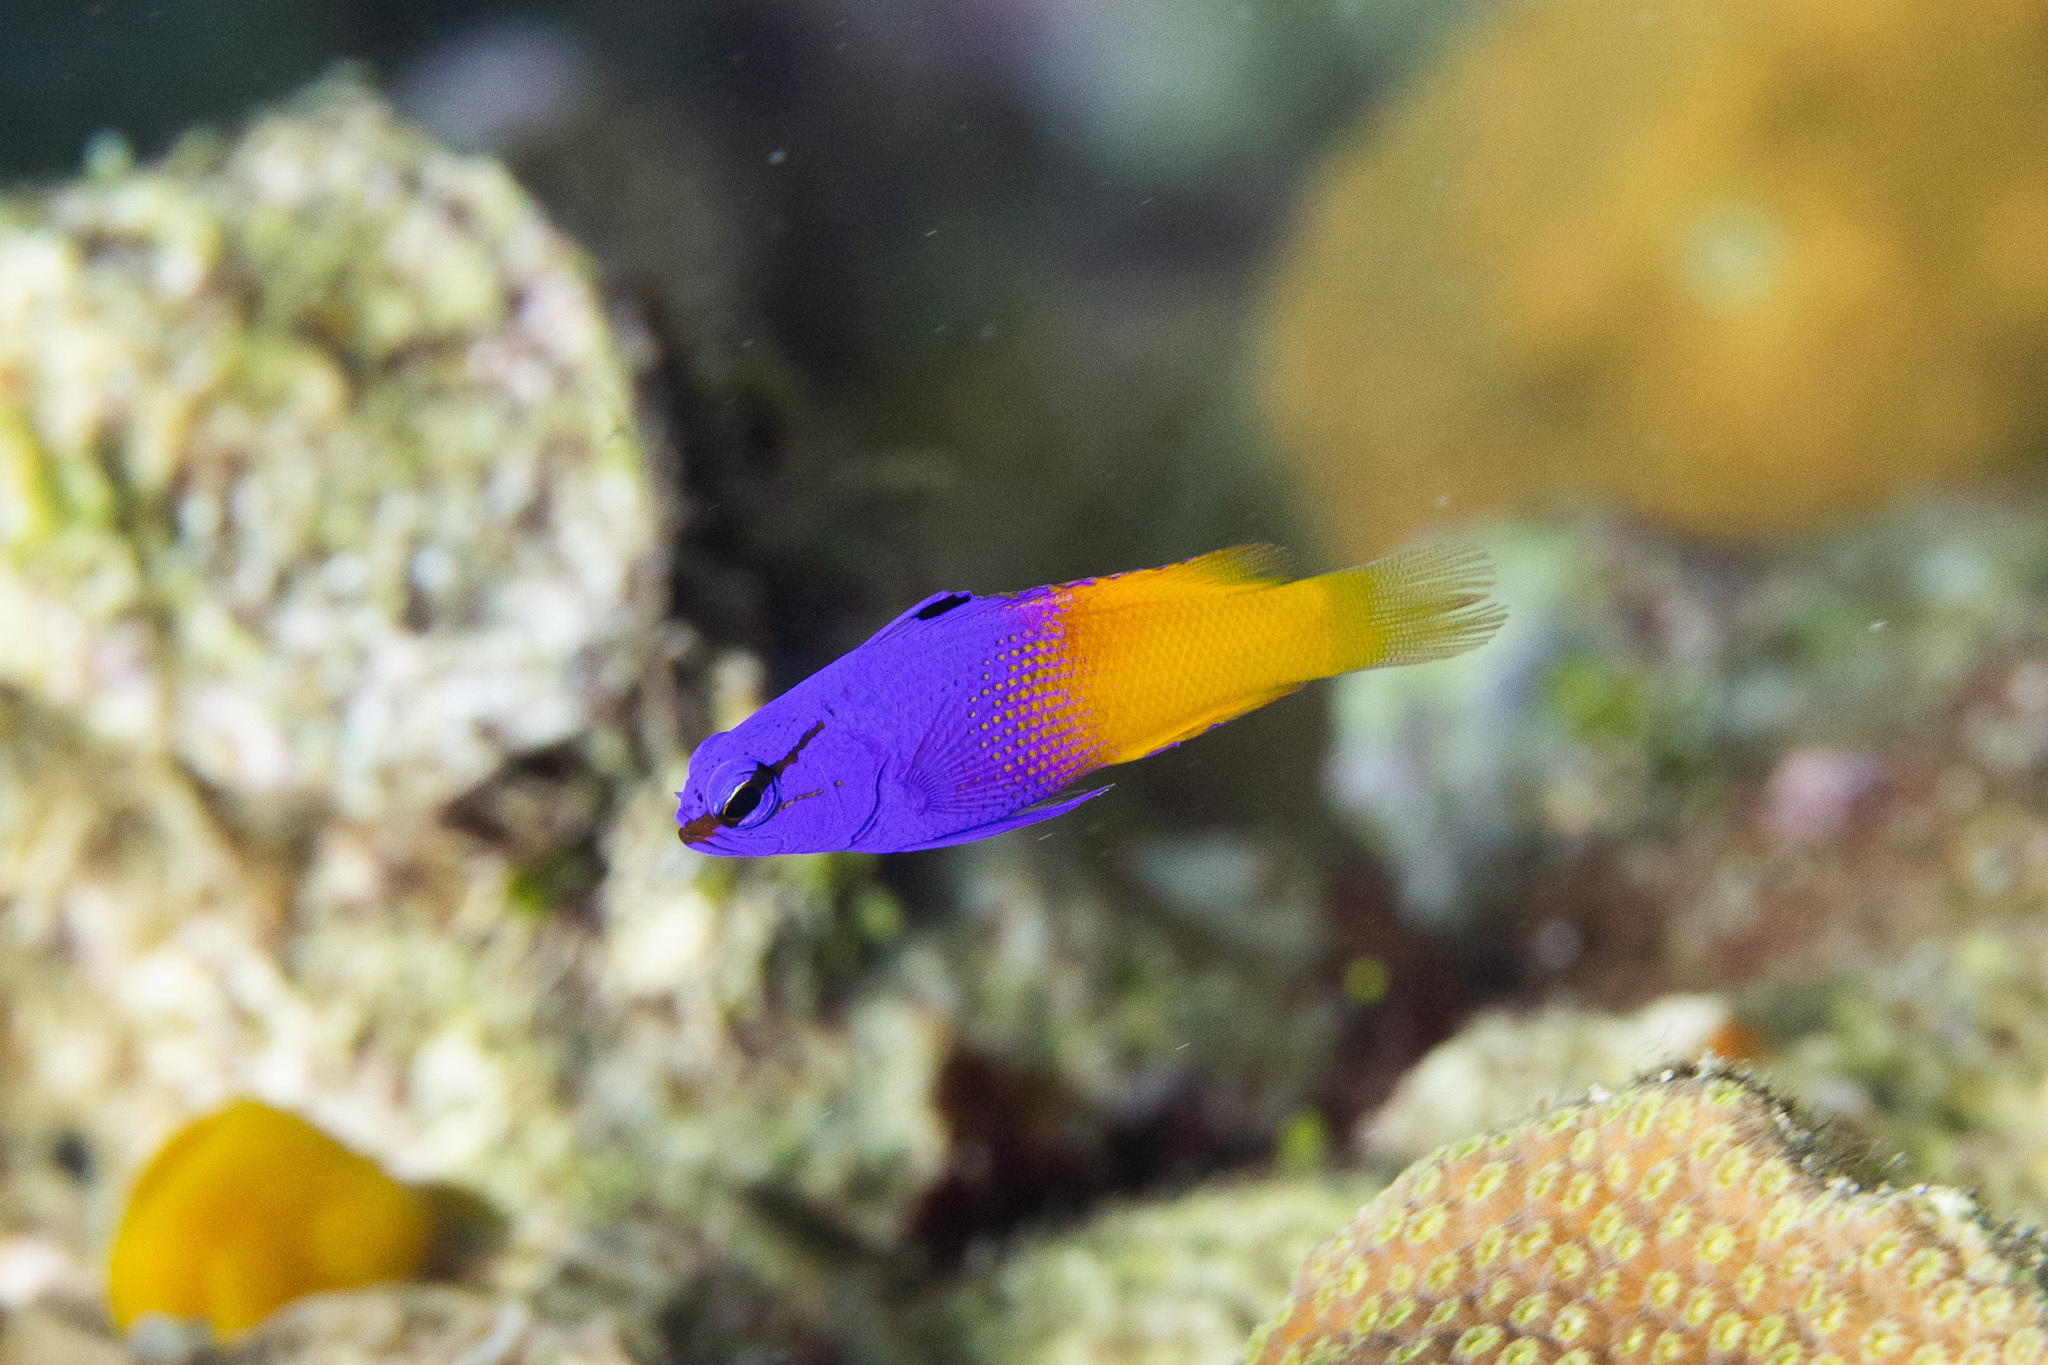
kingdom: Animalia
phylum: Chordata
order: Perciformes
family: Grammatidae
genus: Gramma
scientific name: Gramma loreto
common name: Fairy basslet
